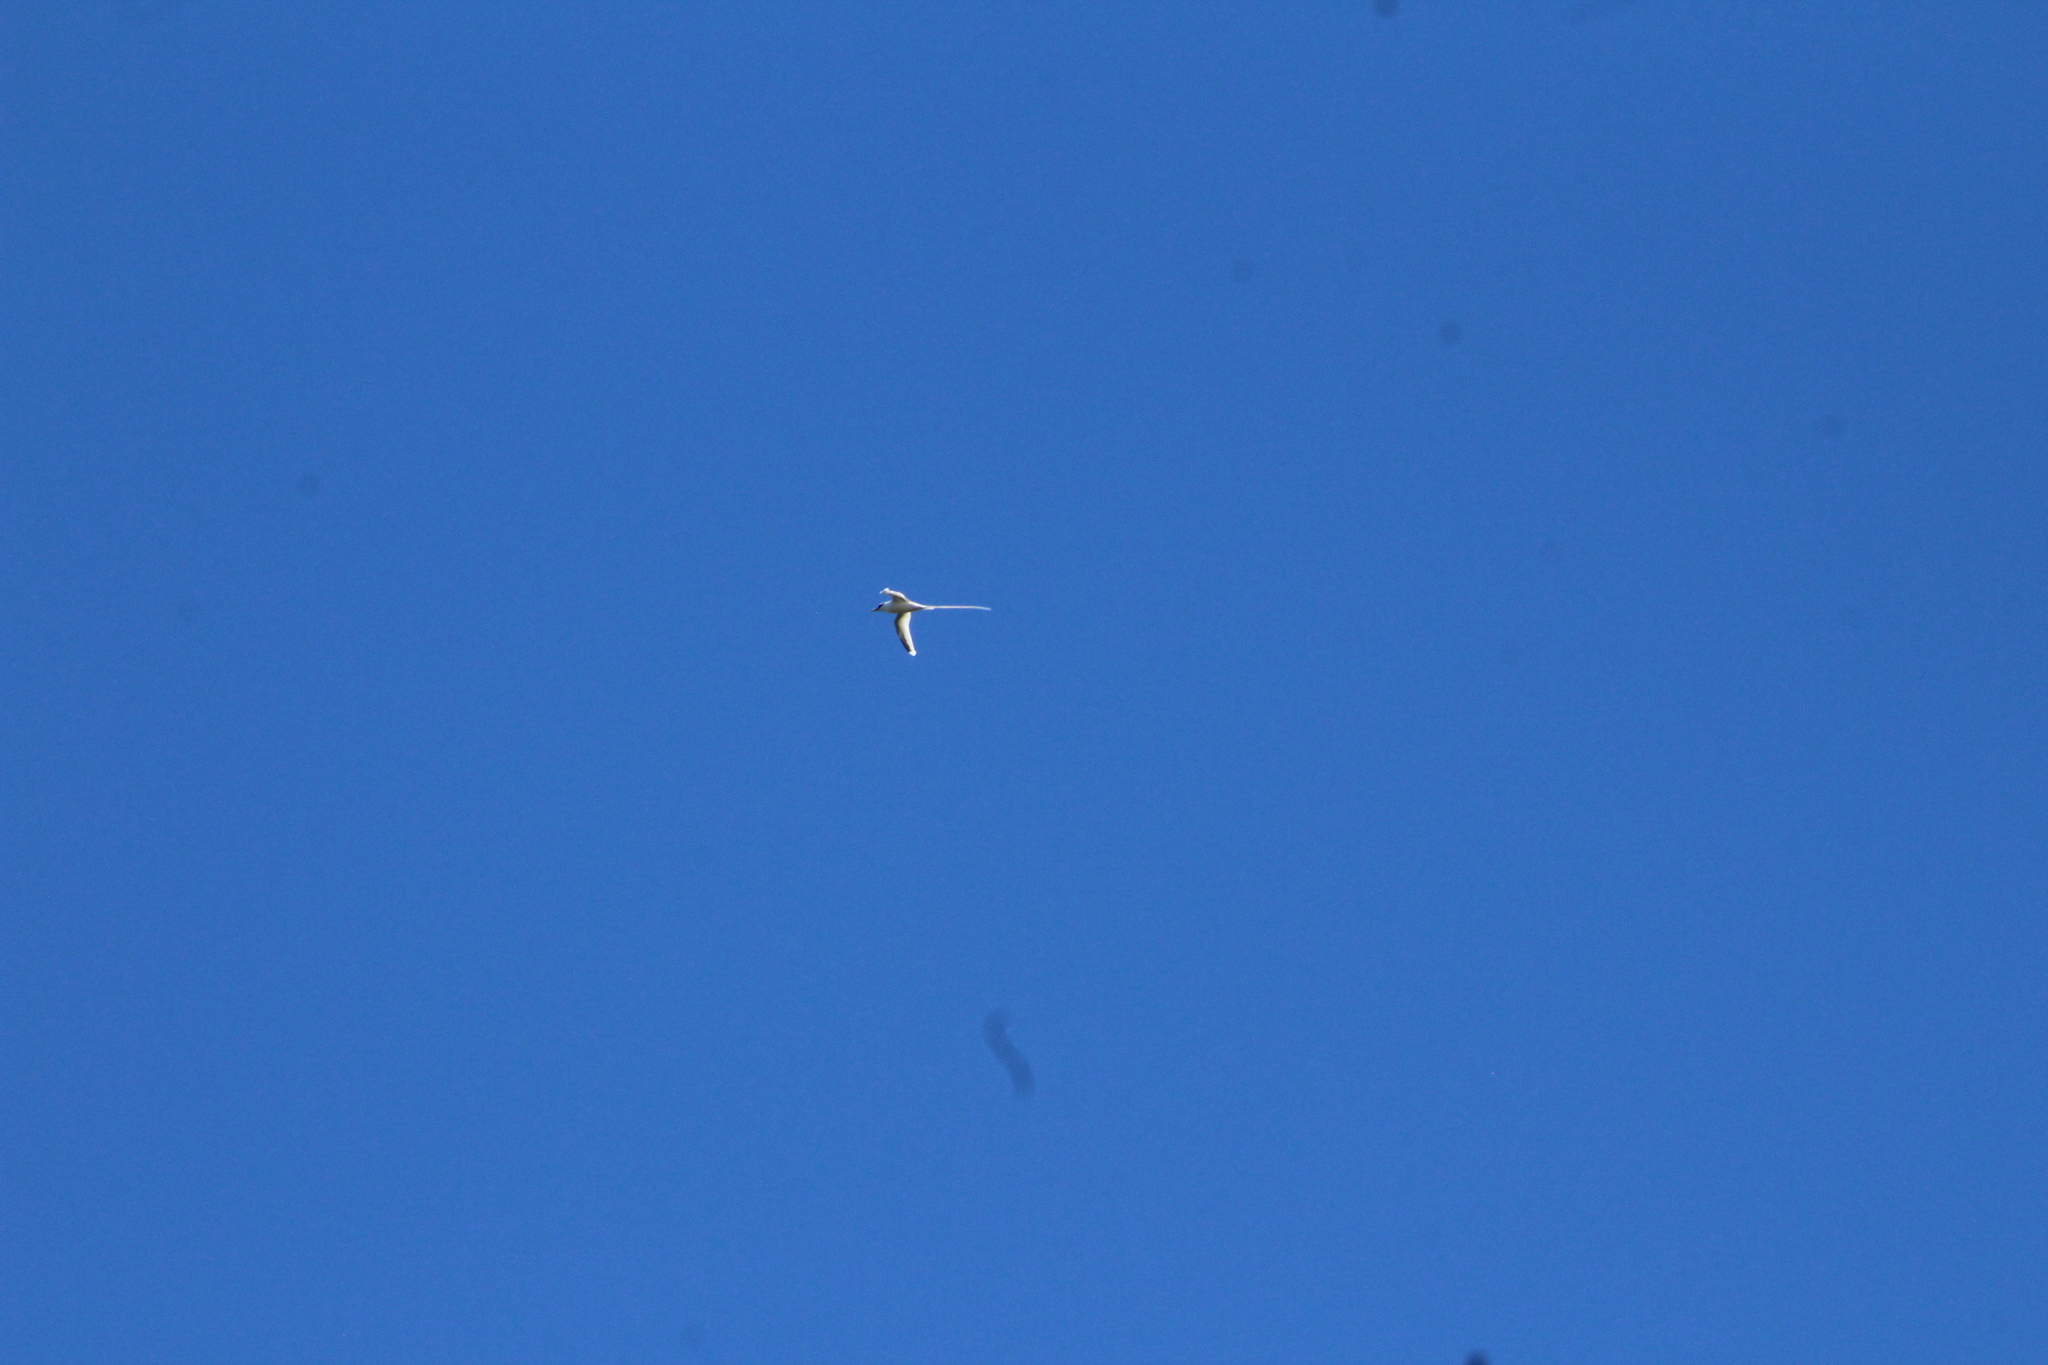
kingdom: Animalia
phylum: Chordata
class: Aves
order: Phaethontiformes
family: Phaethontidae
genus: Phaethon
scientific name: Phaethon lepturus
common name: White-tailed tropicbird
